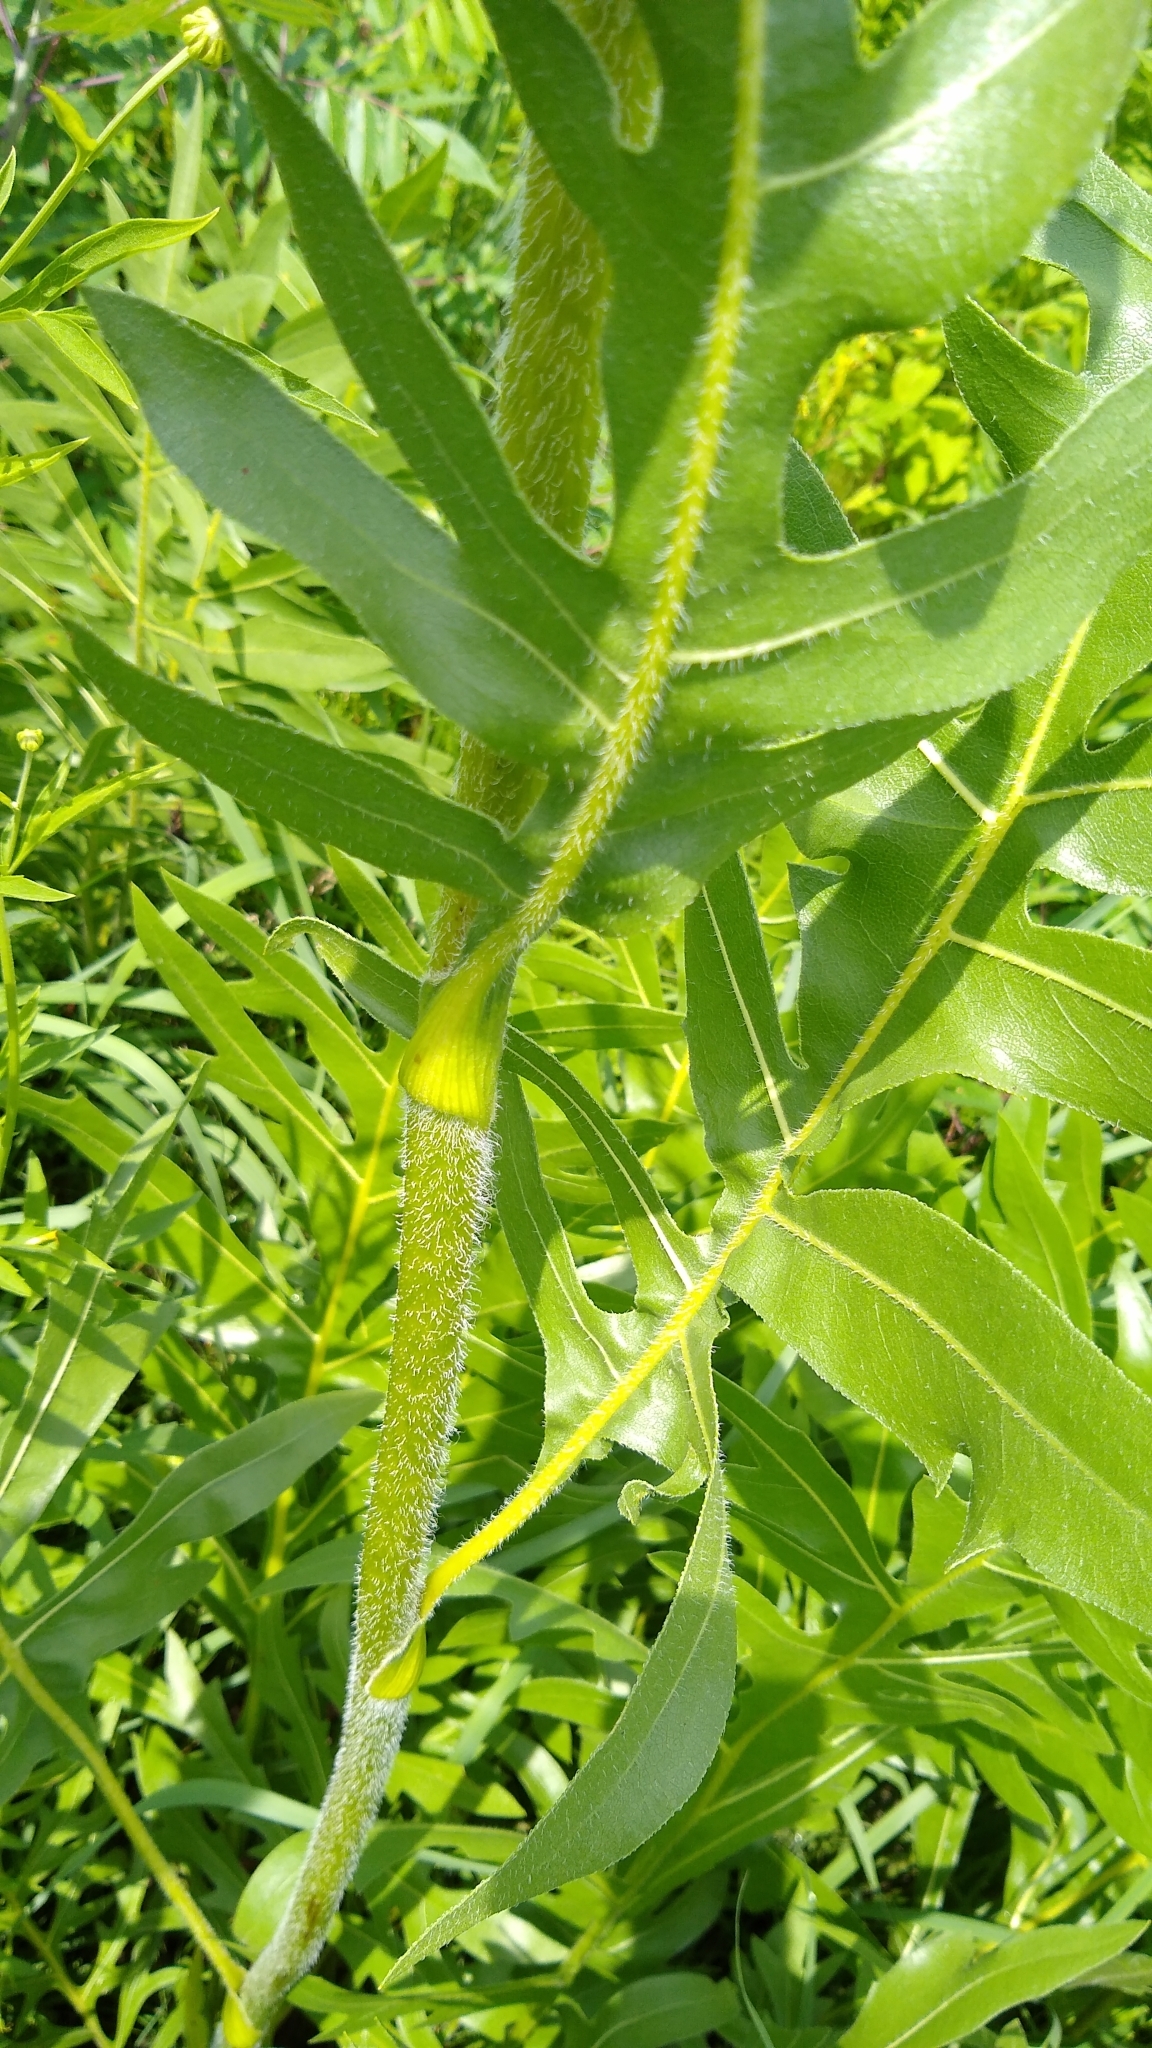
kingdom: Plantae
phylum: Tracheophyta
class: Magnoliopsida
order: Asterales
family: Asteraceae
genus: Silphium
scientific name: Silphium laciniatum
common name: Polarplant
